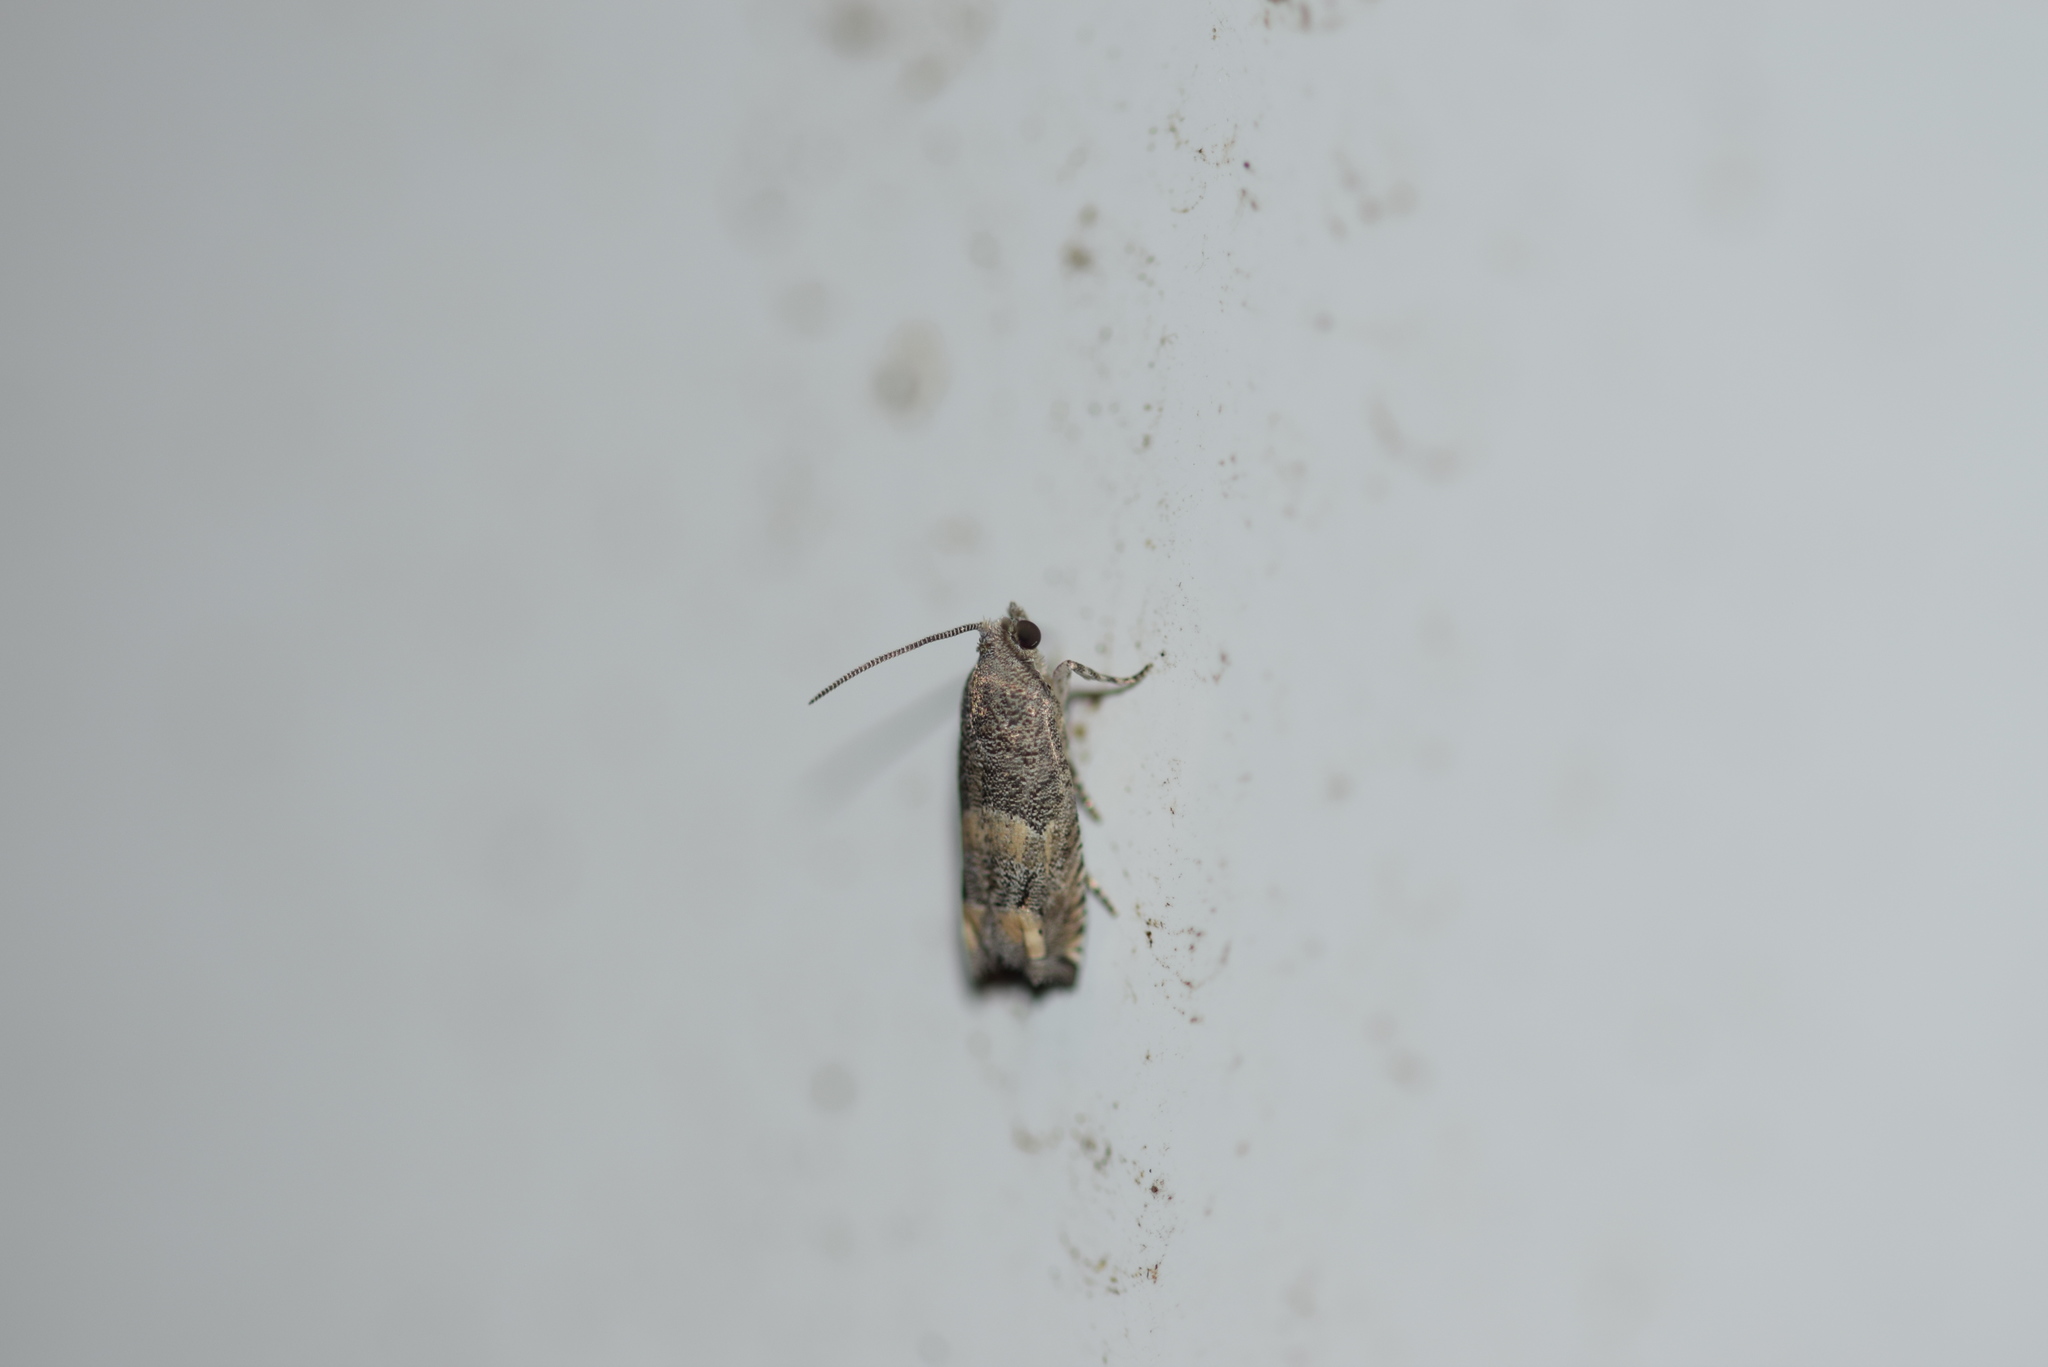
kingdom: Animalia
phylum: Arthropoda
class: Insecta
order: Lepidoptera
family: Tortricidae
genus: Epiblema
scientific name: Epiblema luctuosissima
